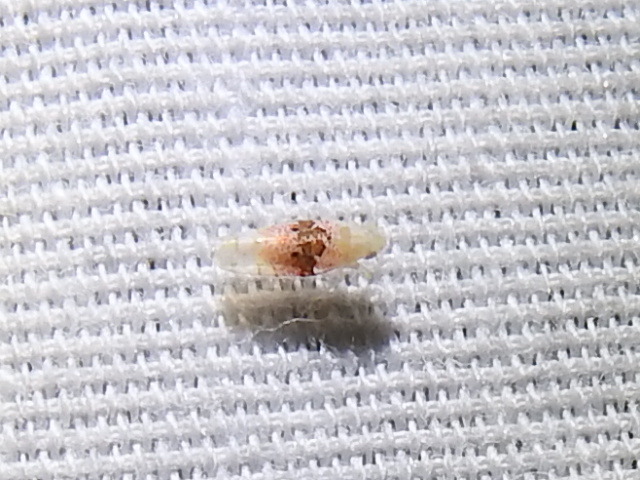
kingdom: Animalia
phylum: Arthropoda
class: Insecta
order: Hemiptera
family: Cicadellidae
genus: Hymetta
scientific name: Hymetta anthisma
